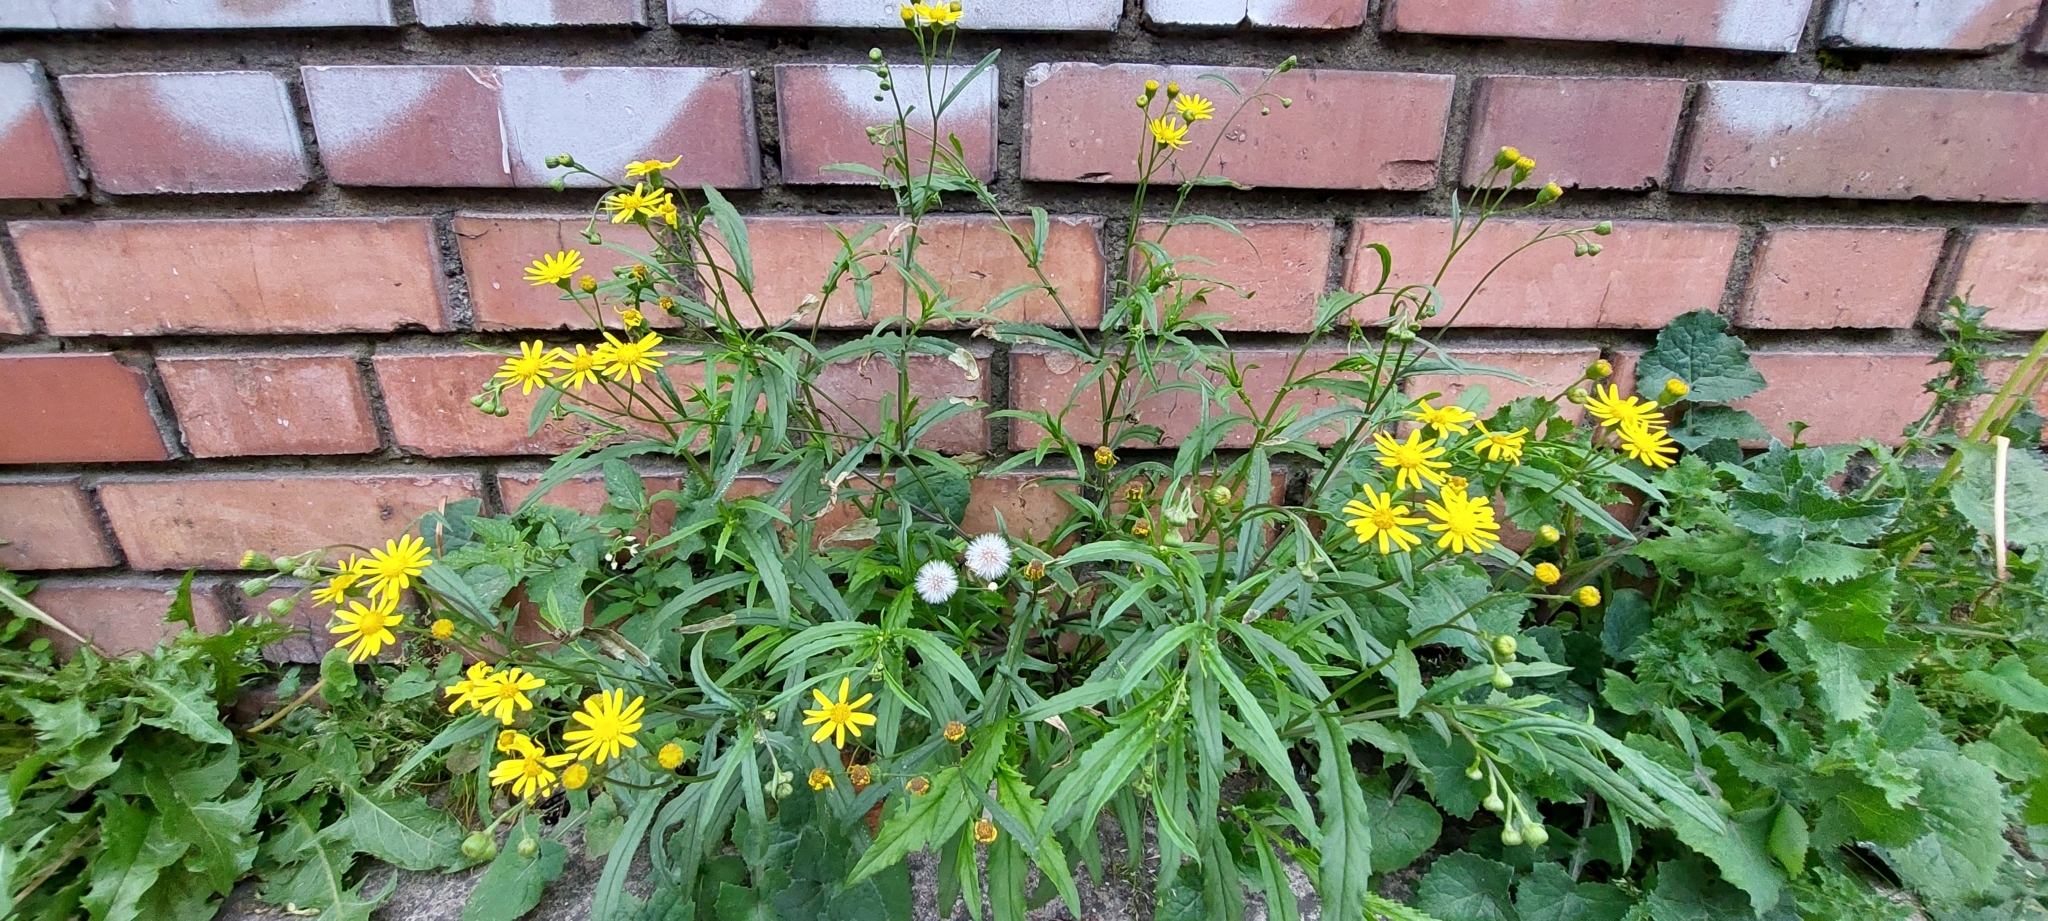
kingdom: Plantae
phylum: Tracheophyta
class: Magnoliopsida
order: Asterales
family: Asteraceae
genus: Senecio
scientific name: Senecio madagascariensis
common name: Madagascar ragwort
